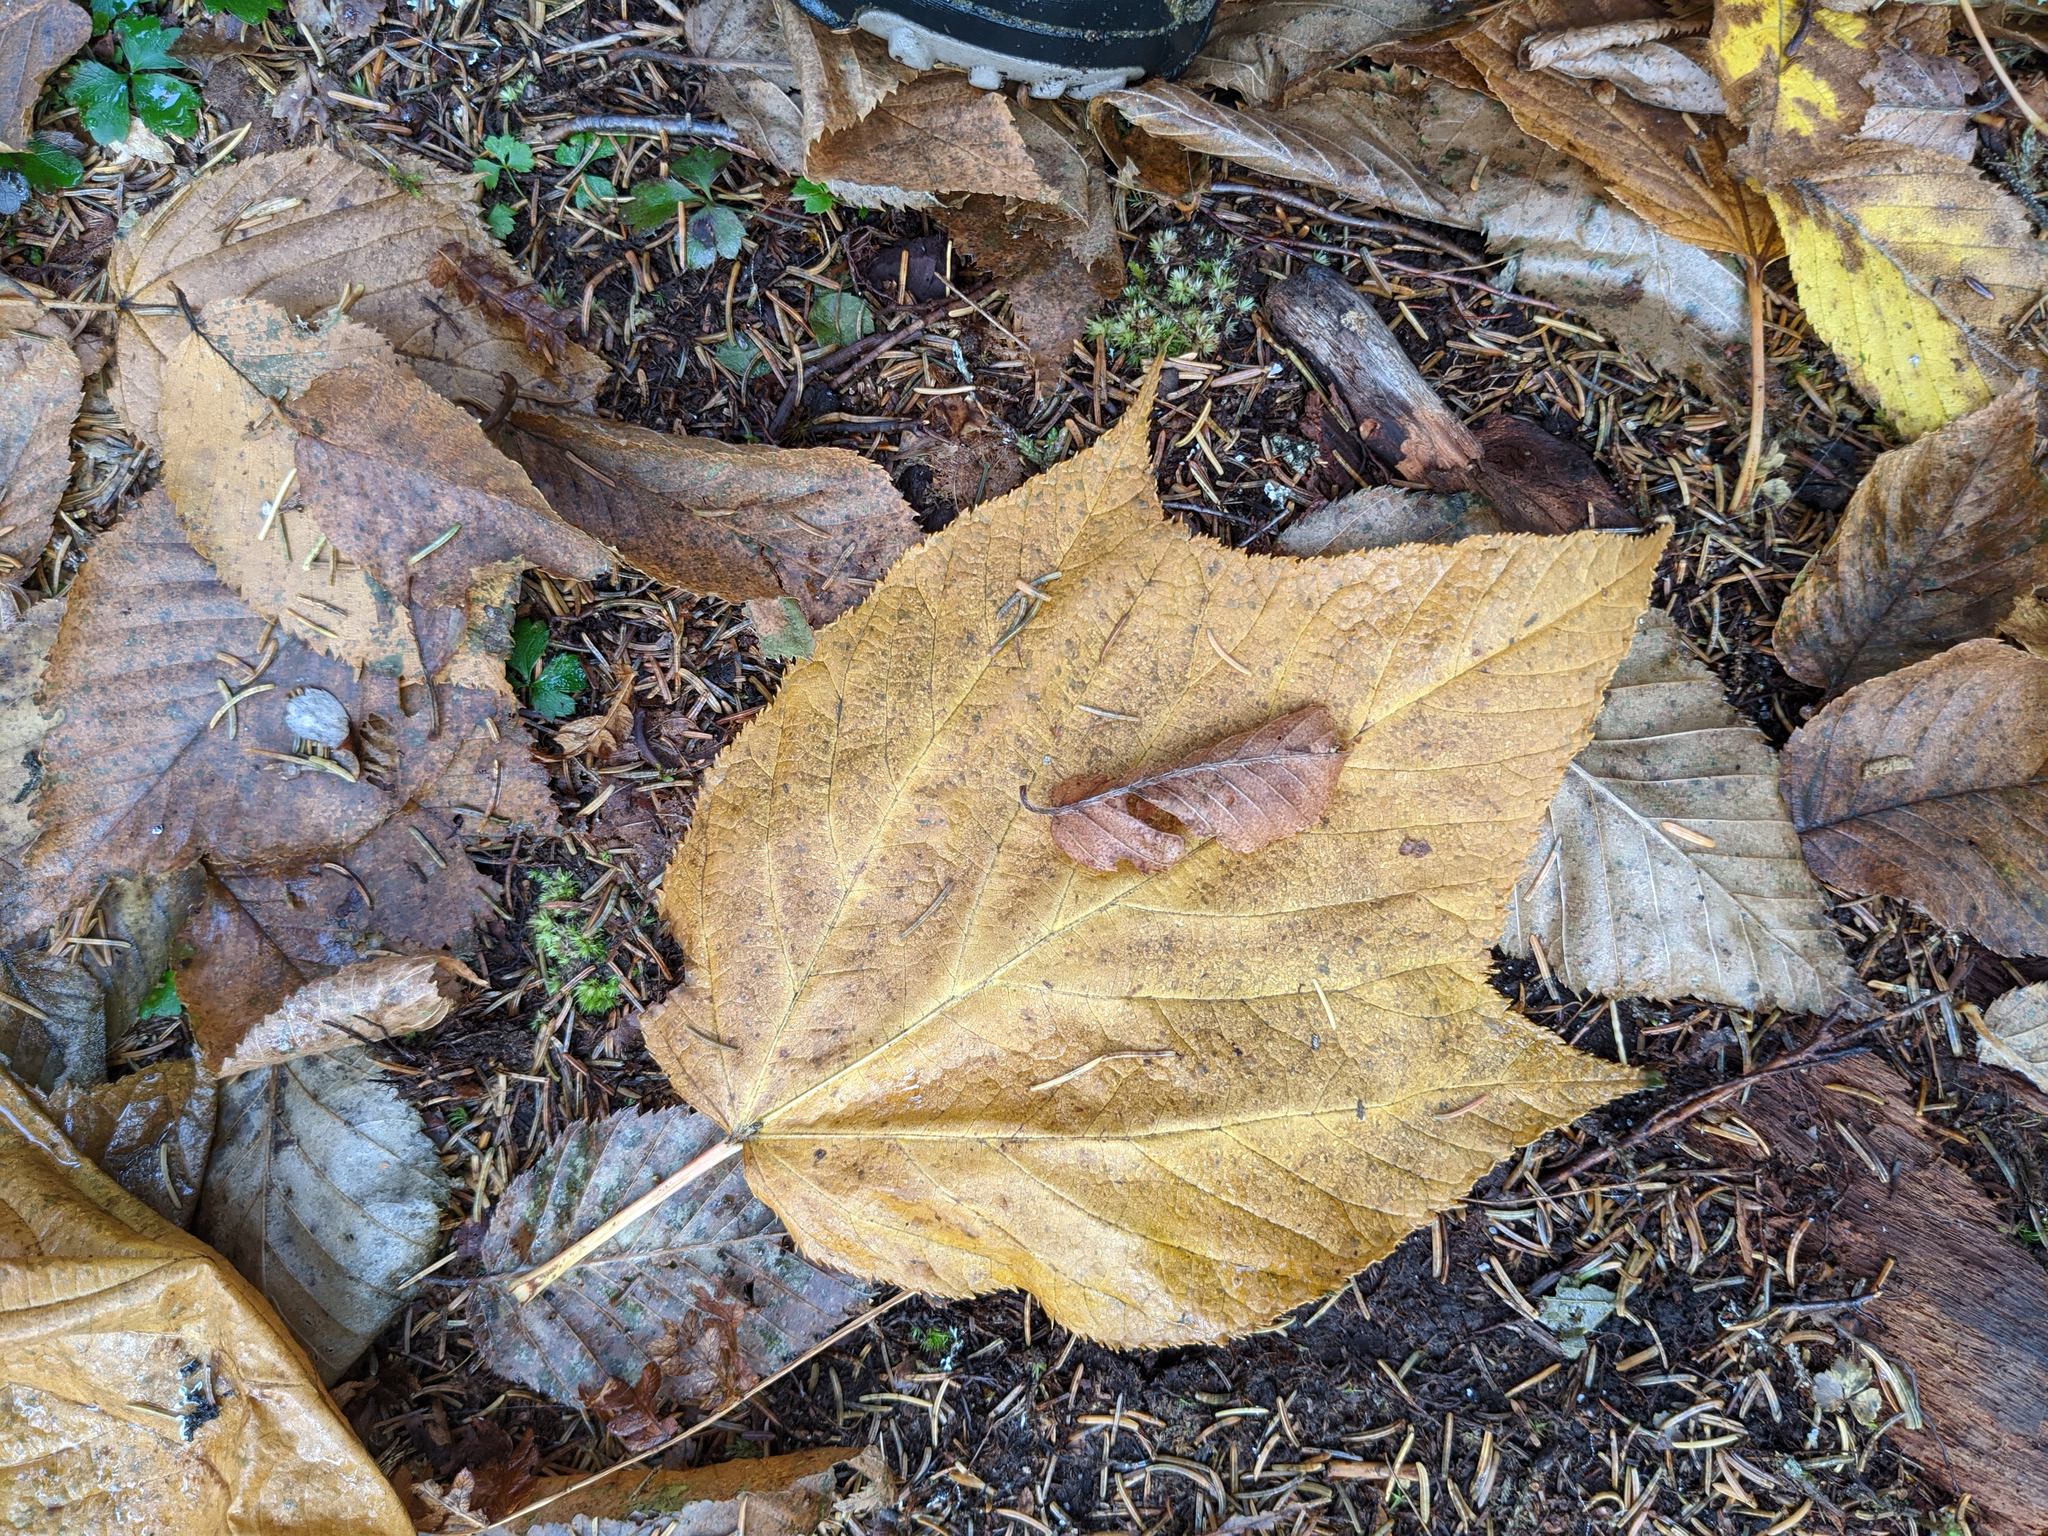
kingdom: Plantae
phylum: Tracheophyta
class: Magnoliopsida
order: Sapindales
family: Sapindaceae
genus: Acer
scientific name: Acer pensylvanicum
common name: Moosewood
